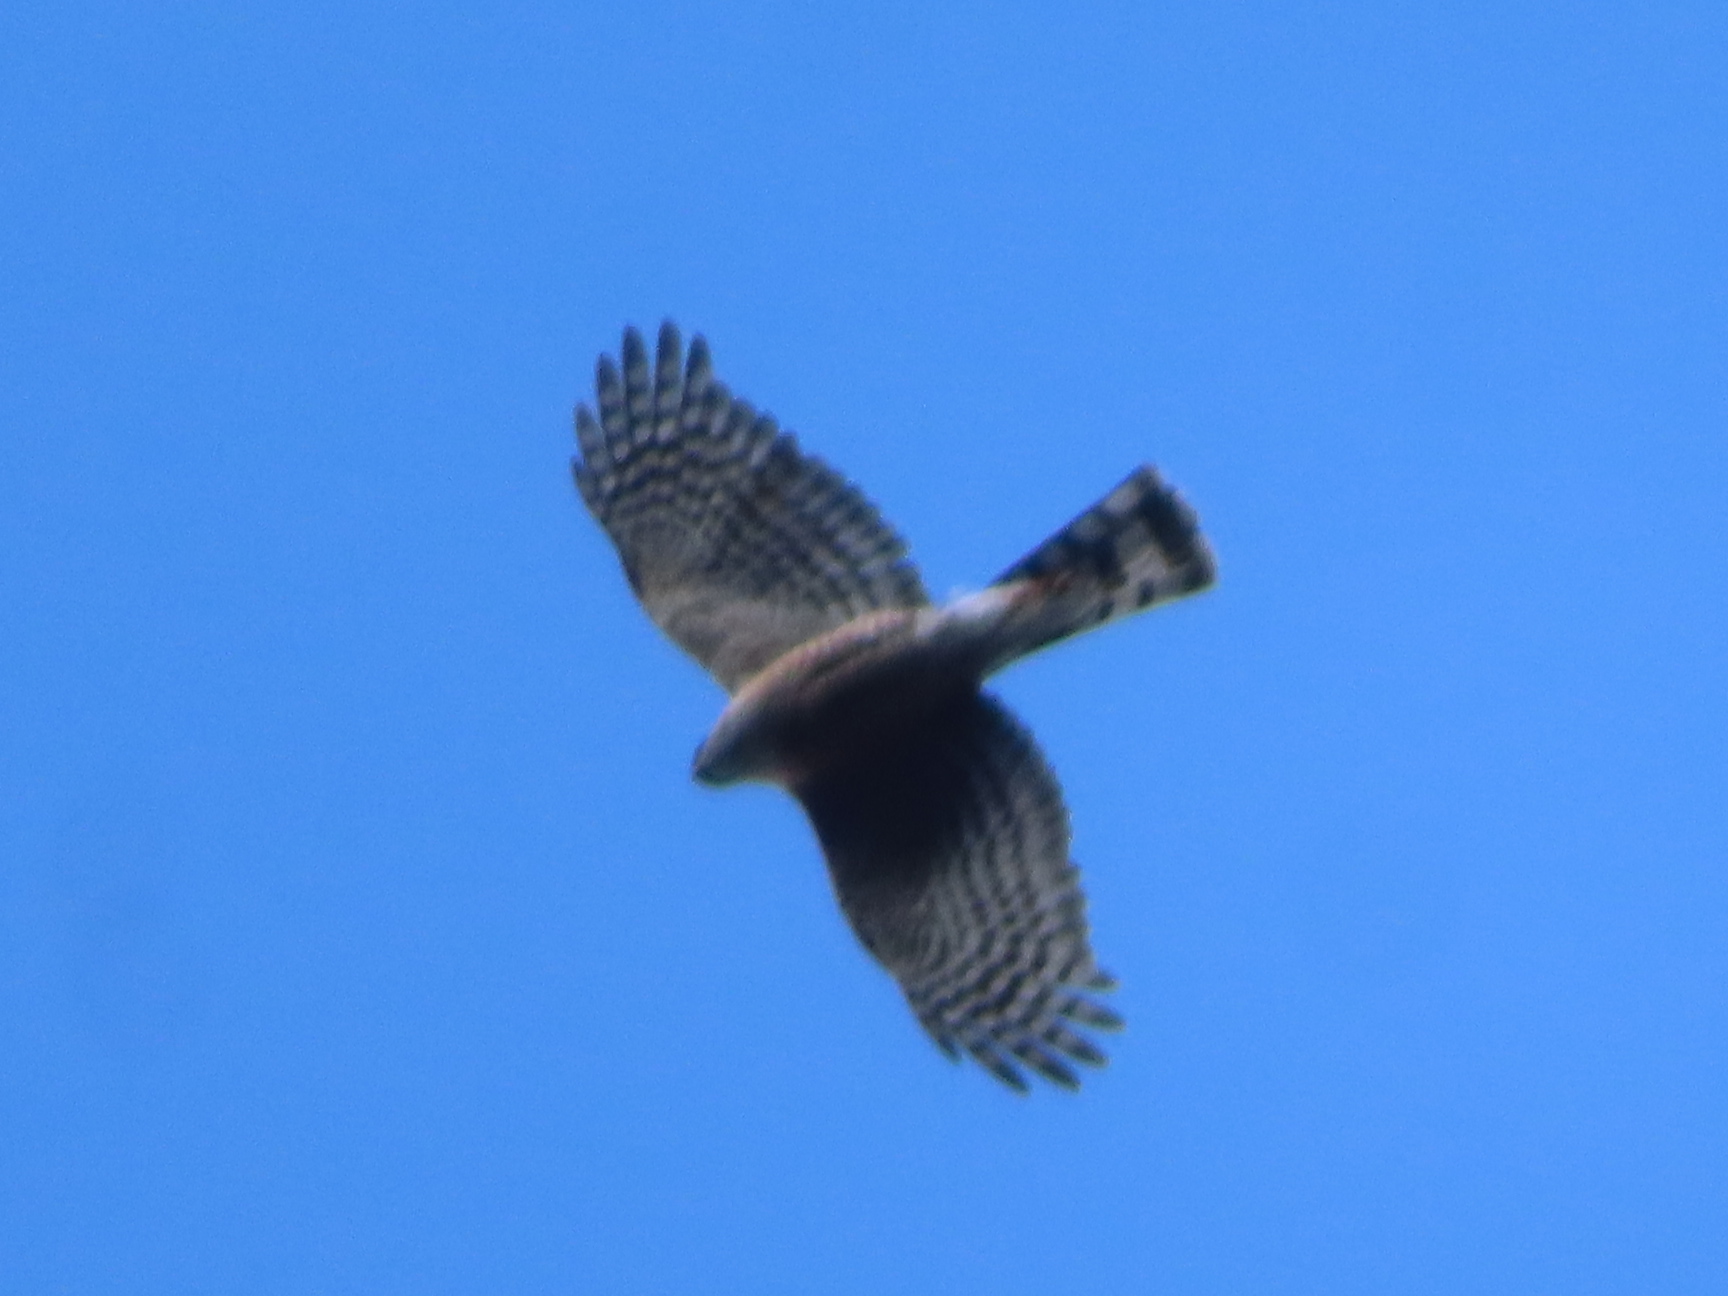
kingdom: Animalia
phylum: Chordata
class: Aves
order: Accipitriformes
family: Accipitridae
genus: Accipiter
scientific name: Accipiter striatus
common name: Sharp-shinned hawk
